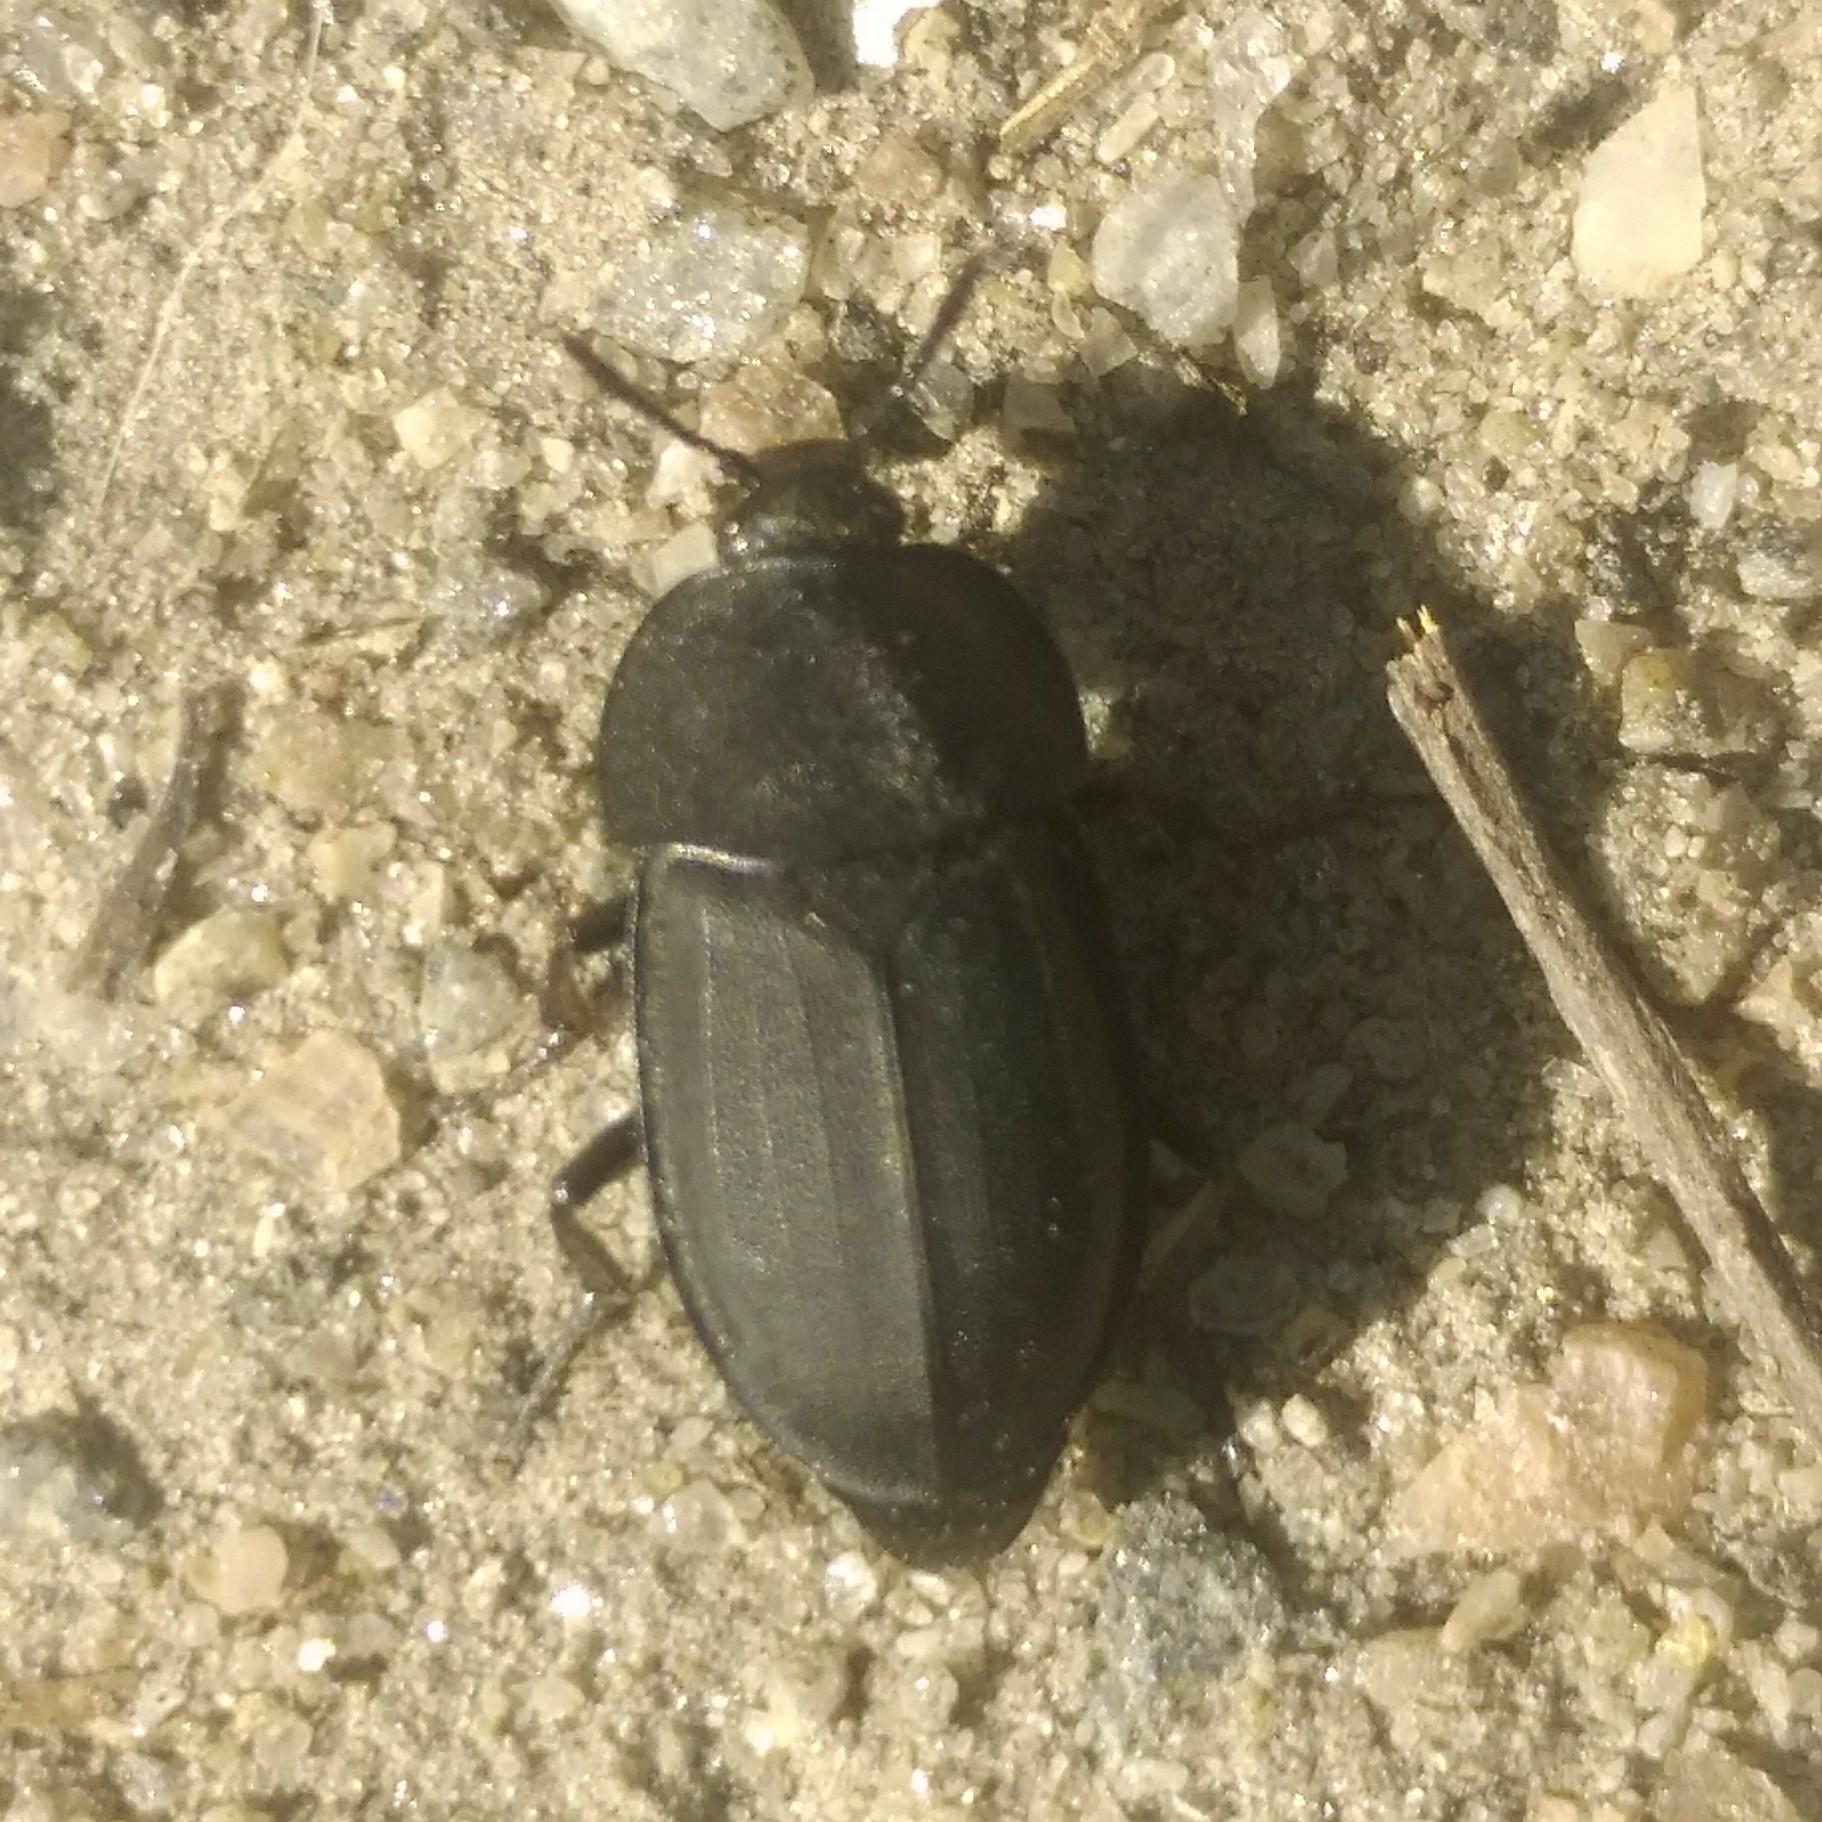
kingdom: Animalia
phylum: Arthropoda
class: Insecta
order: Coleoptera
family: Staphylinidae
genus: Silpha
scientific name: Silpha obscura
